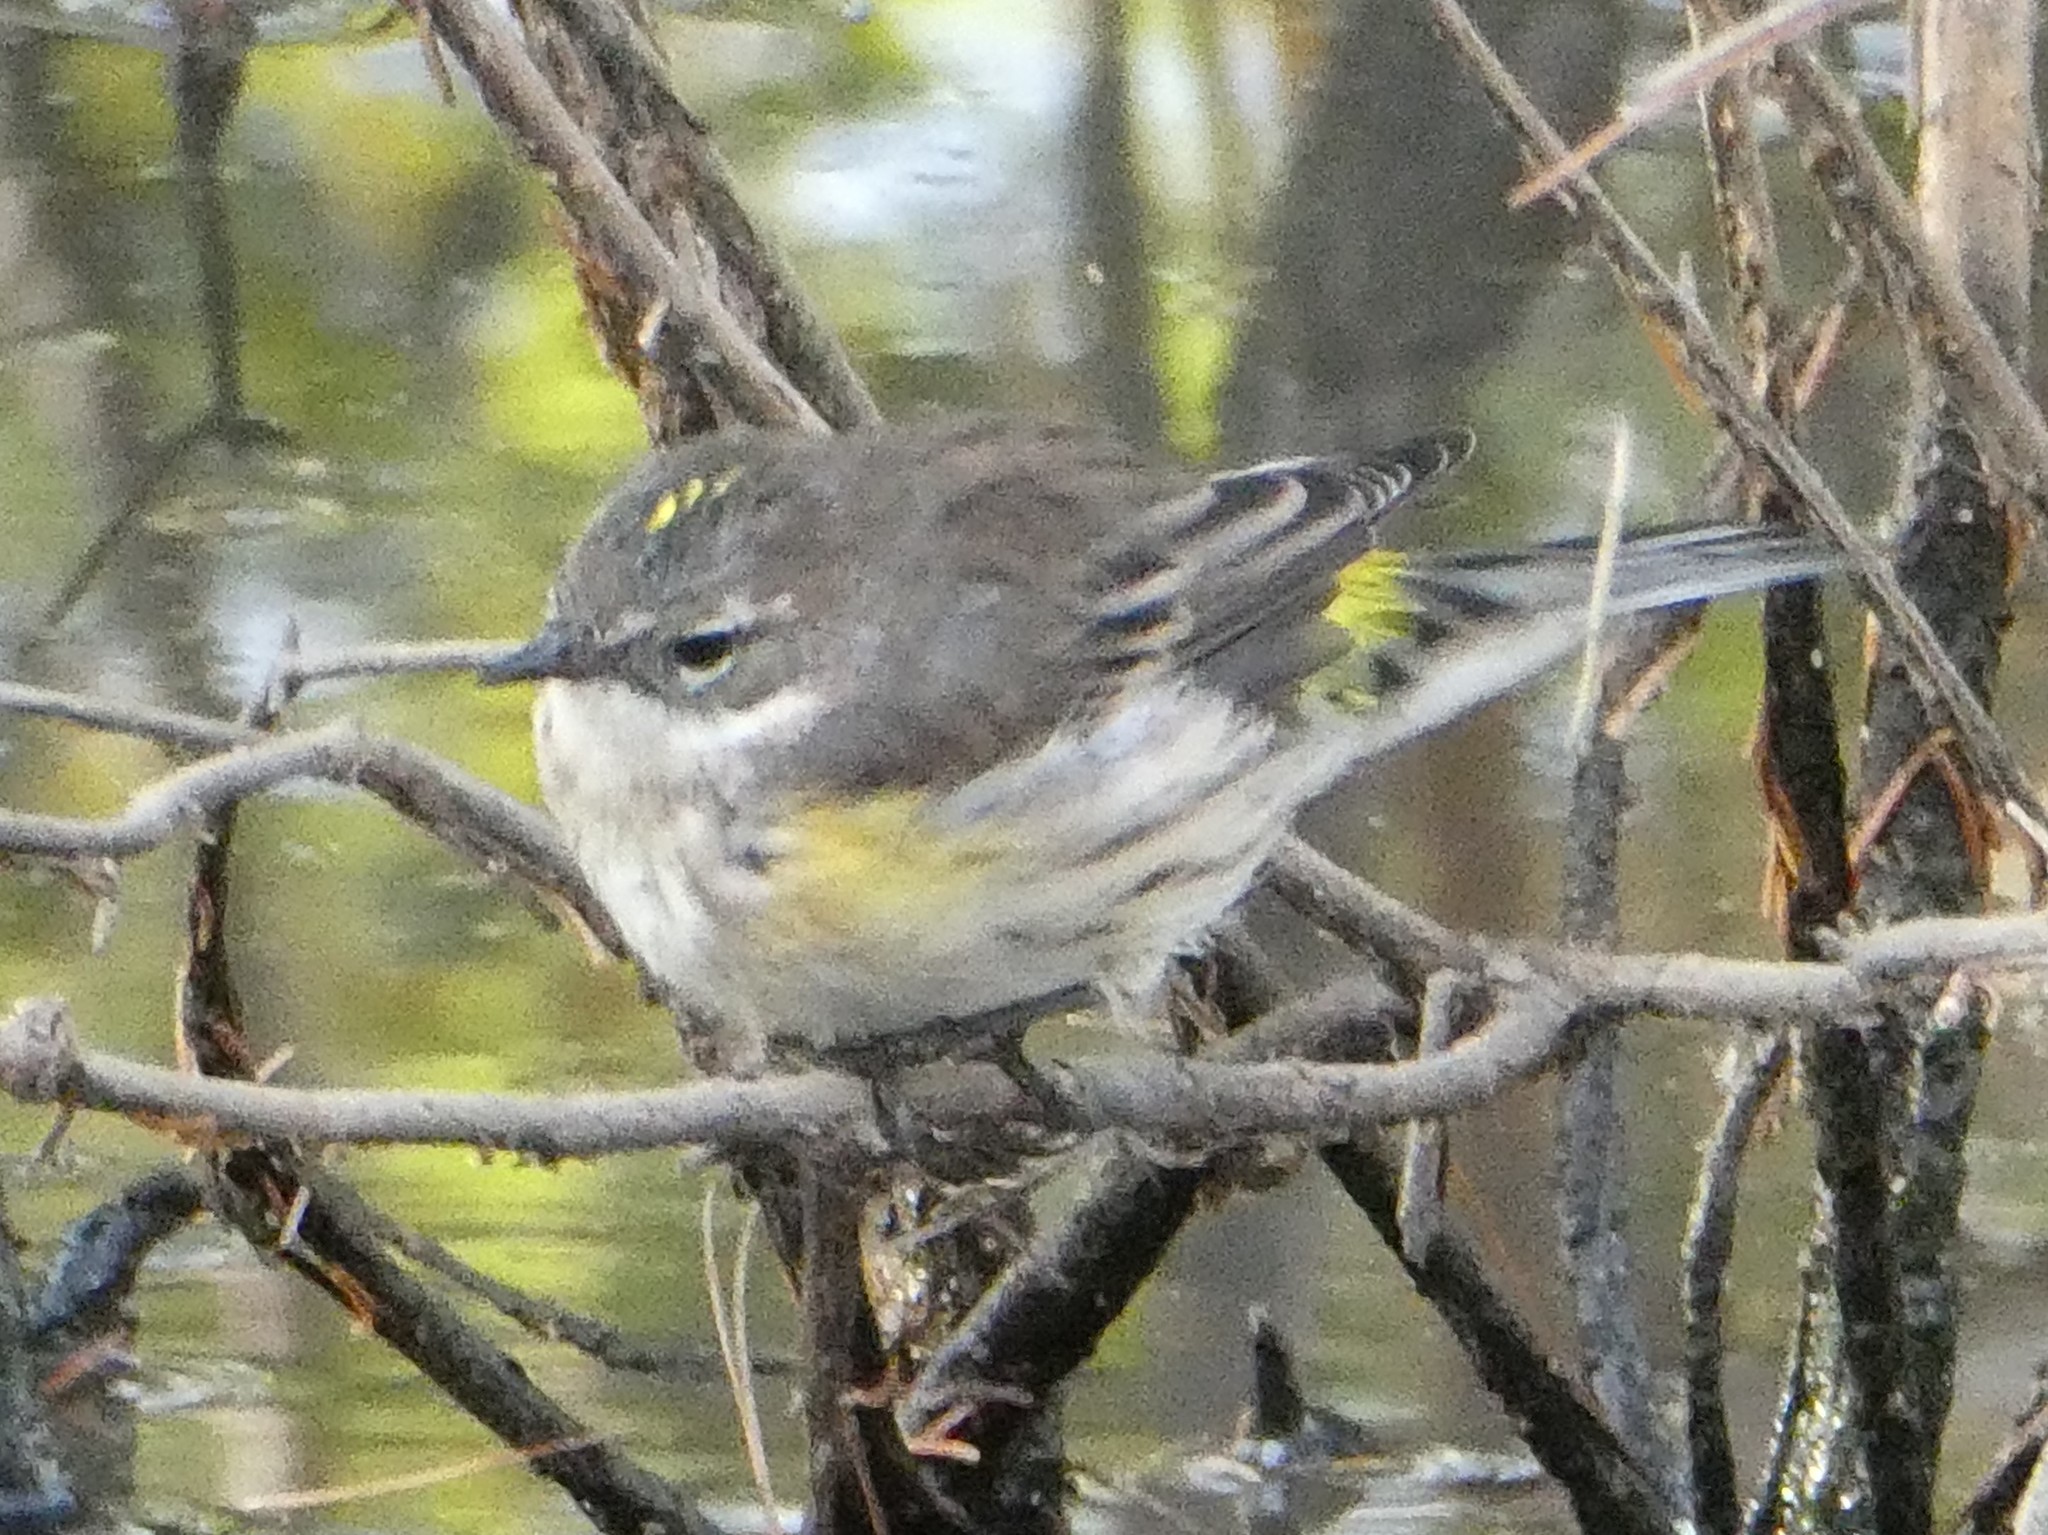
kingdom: Animalia
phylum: Chordata
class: Aves
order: Passeriformes
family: Parulidae
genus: Setophaga
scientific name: Setophaga coronata
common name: Myrtle warbler
